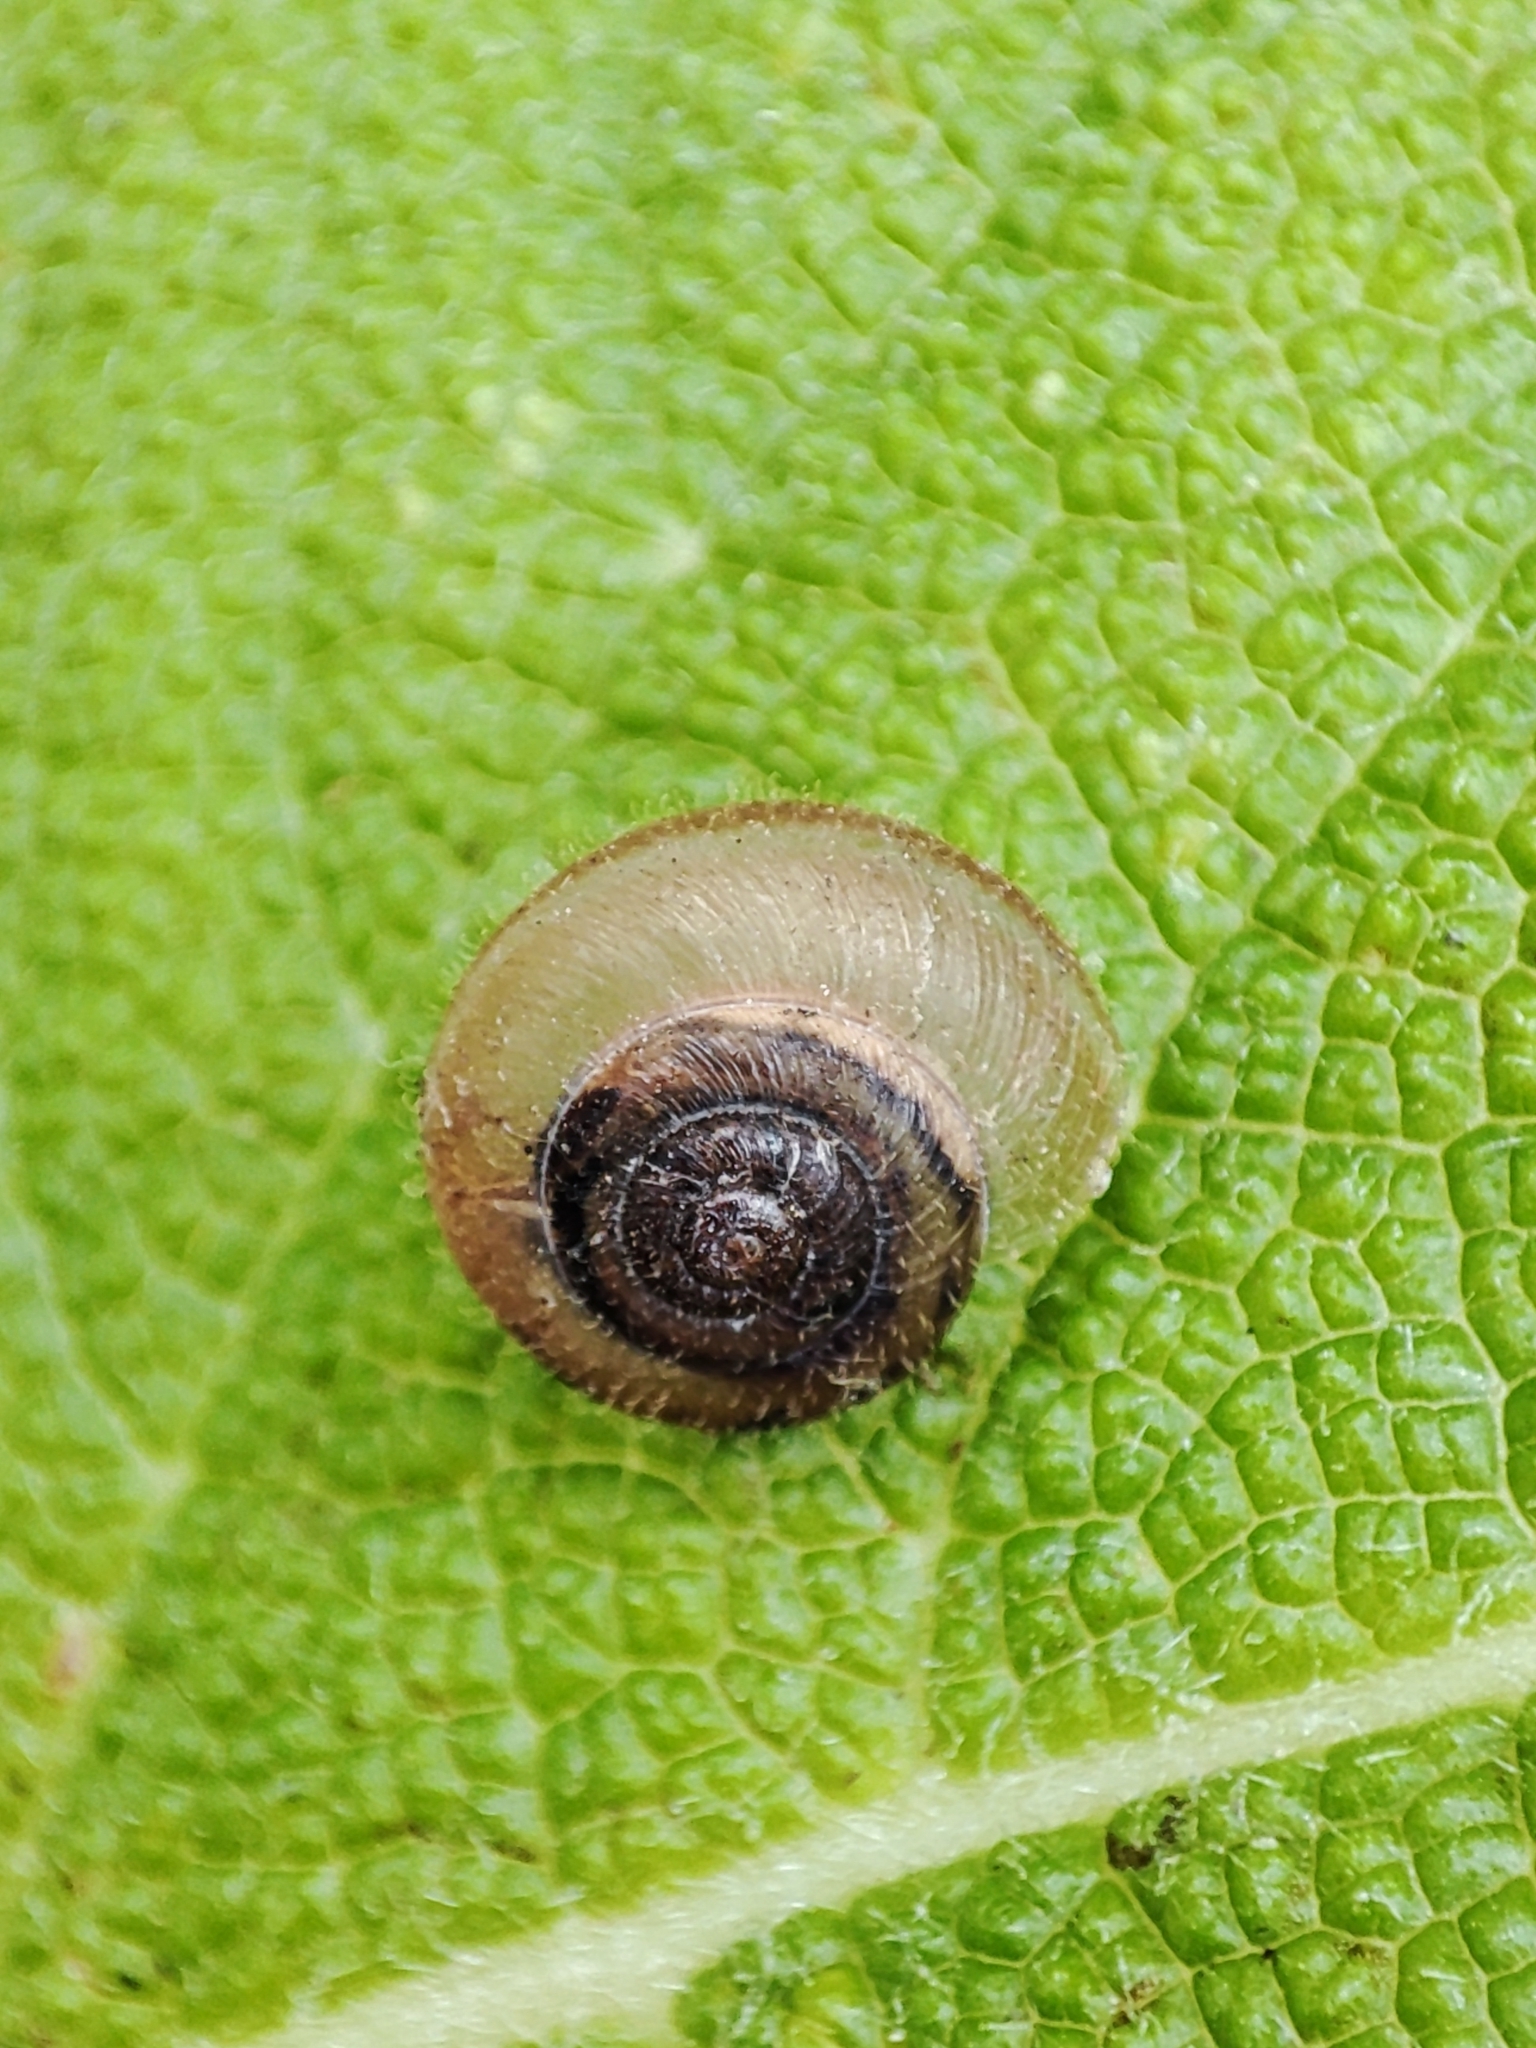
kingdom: Animalia
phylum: Mollusca
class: Gastropoda
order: Stylommatophora
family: Hygromiidae
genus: Euomphalia
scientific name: Euomphalia strigella
